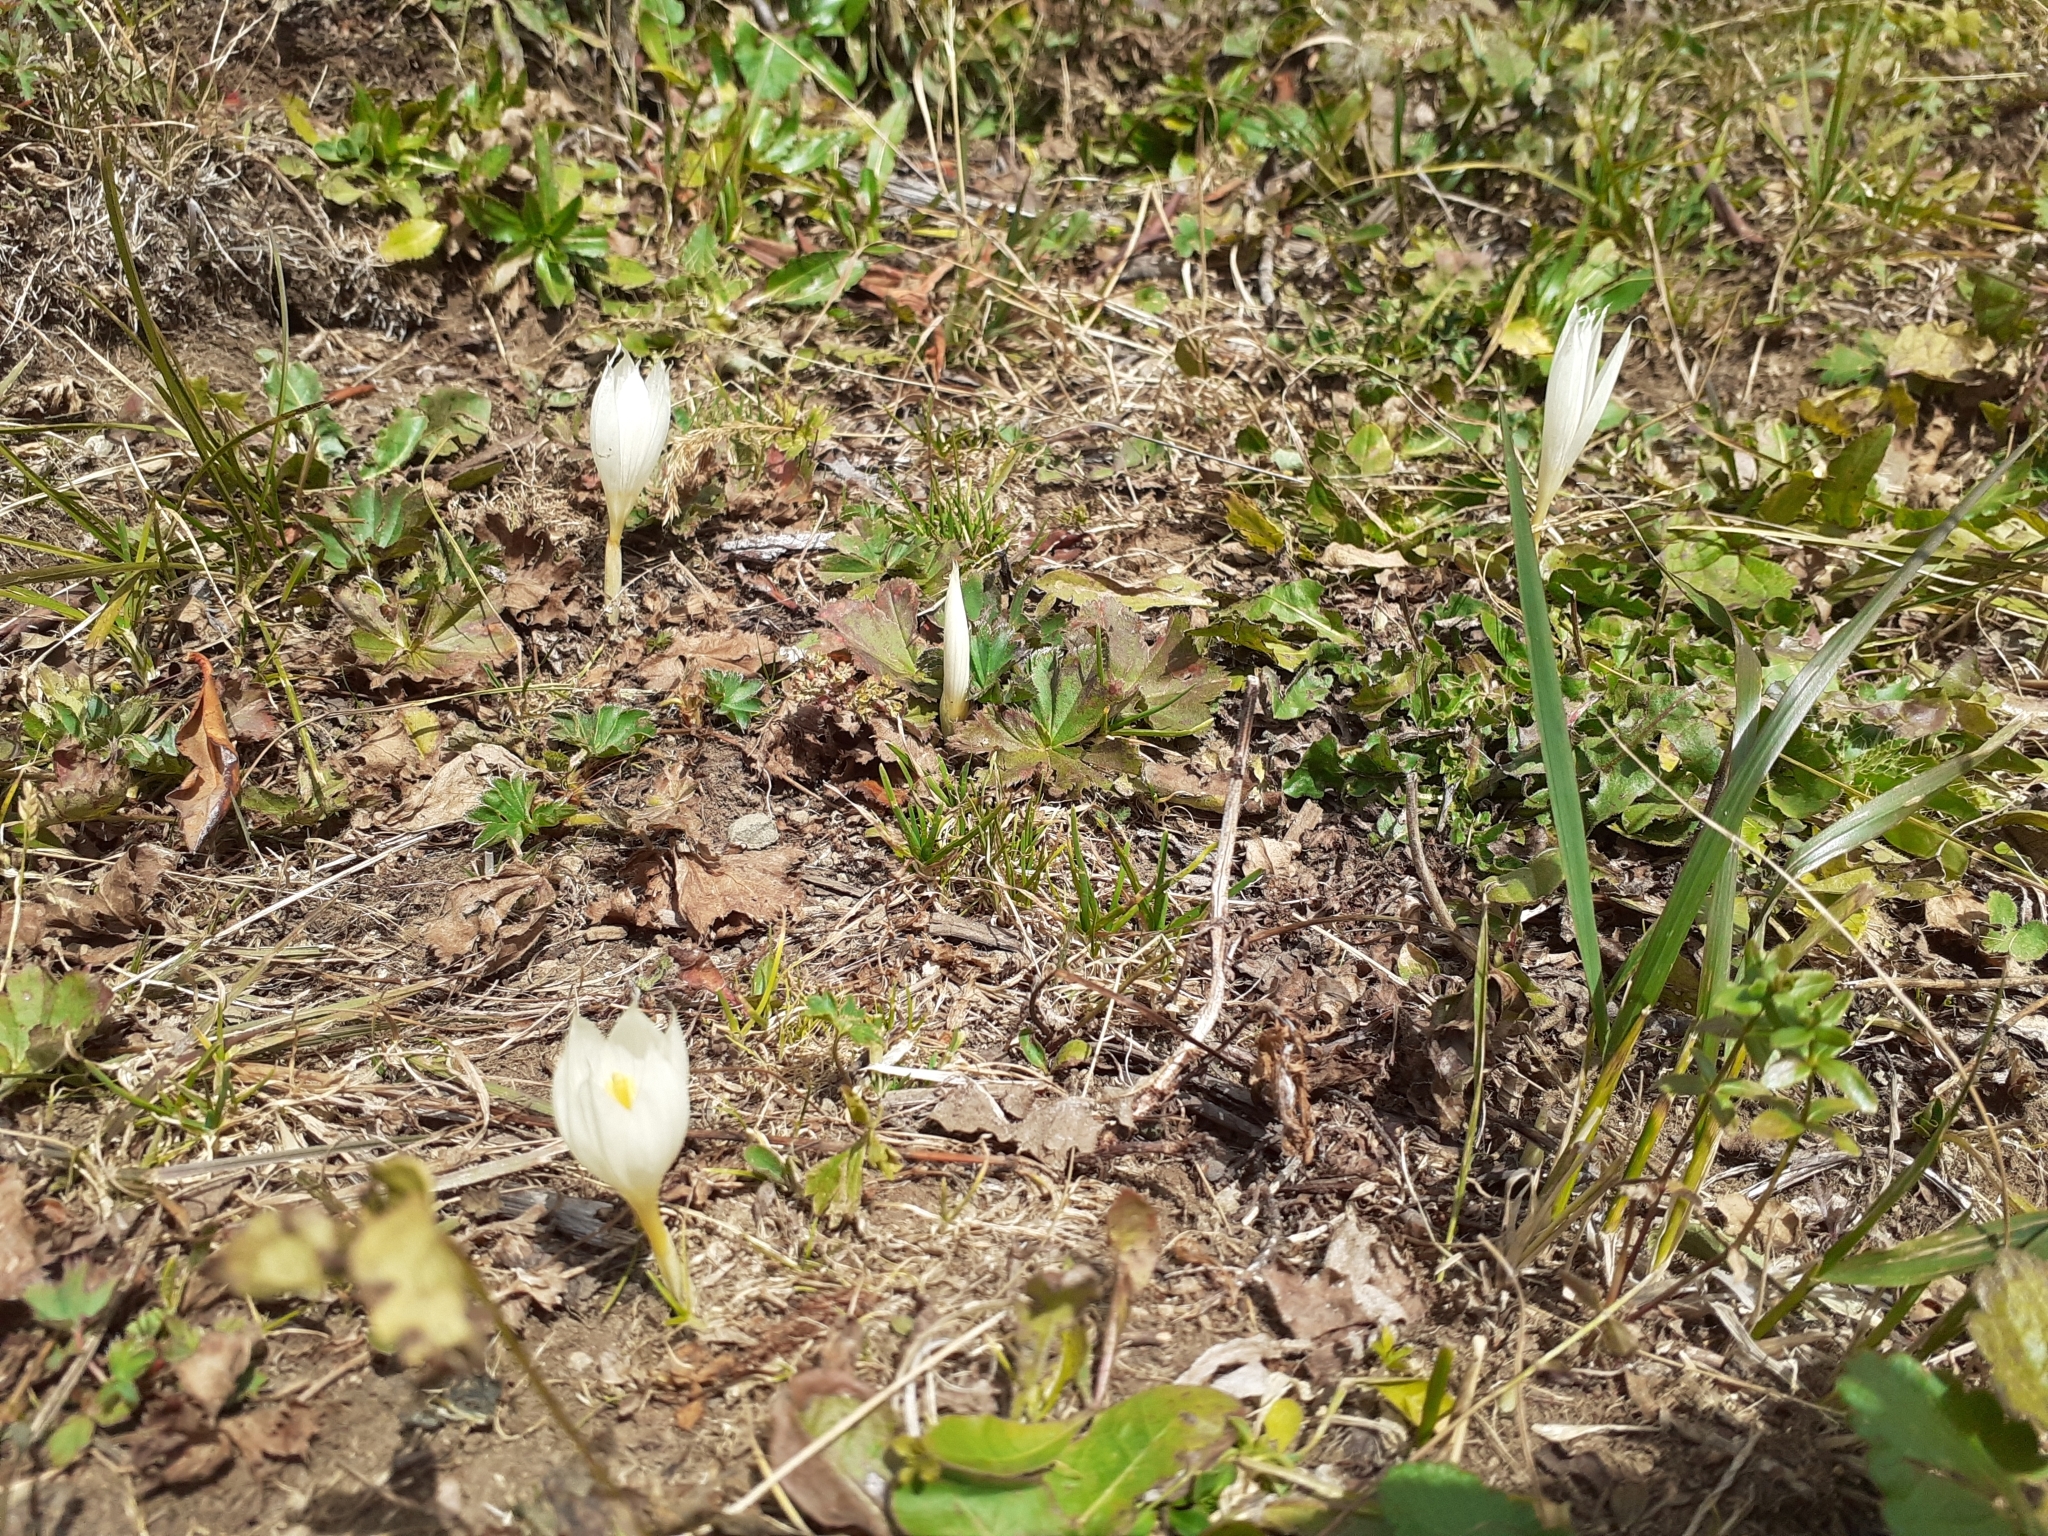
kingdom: Plantae
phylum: Tracheophyta
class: Liliopsida
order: Asparagales
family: Iridaceae
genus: Crocus
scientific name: Crocus vallicola
